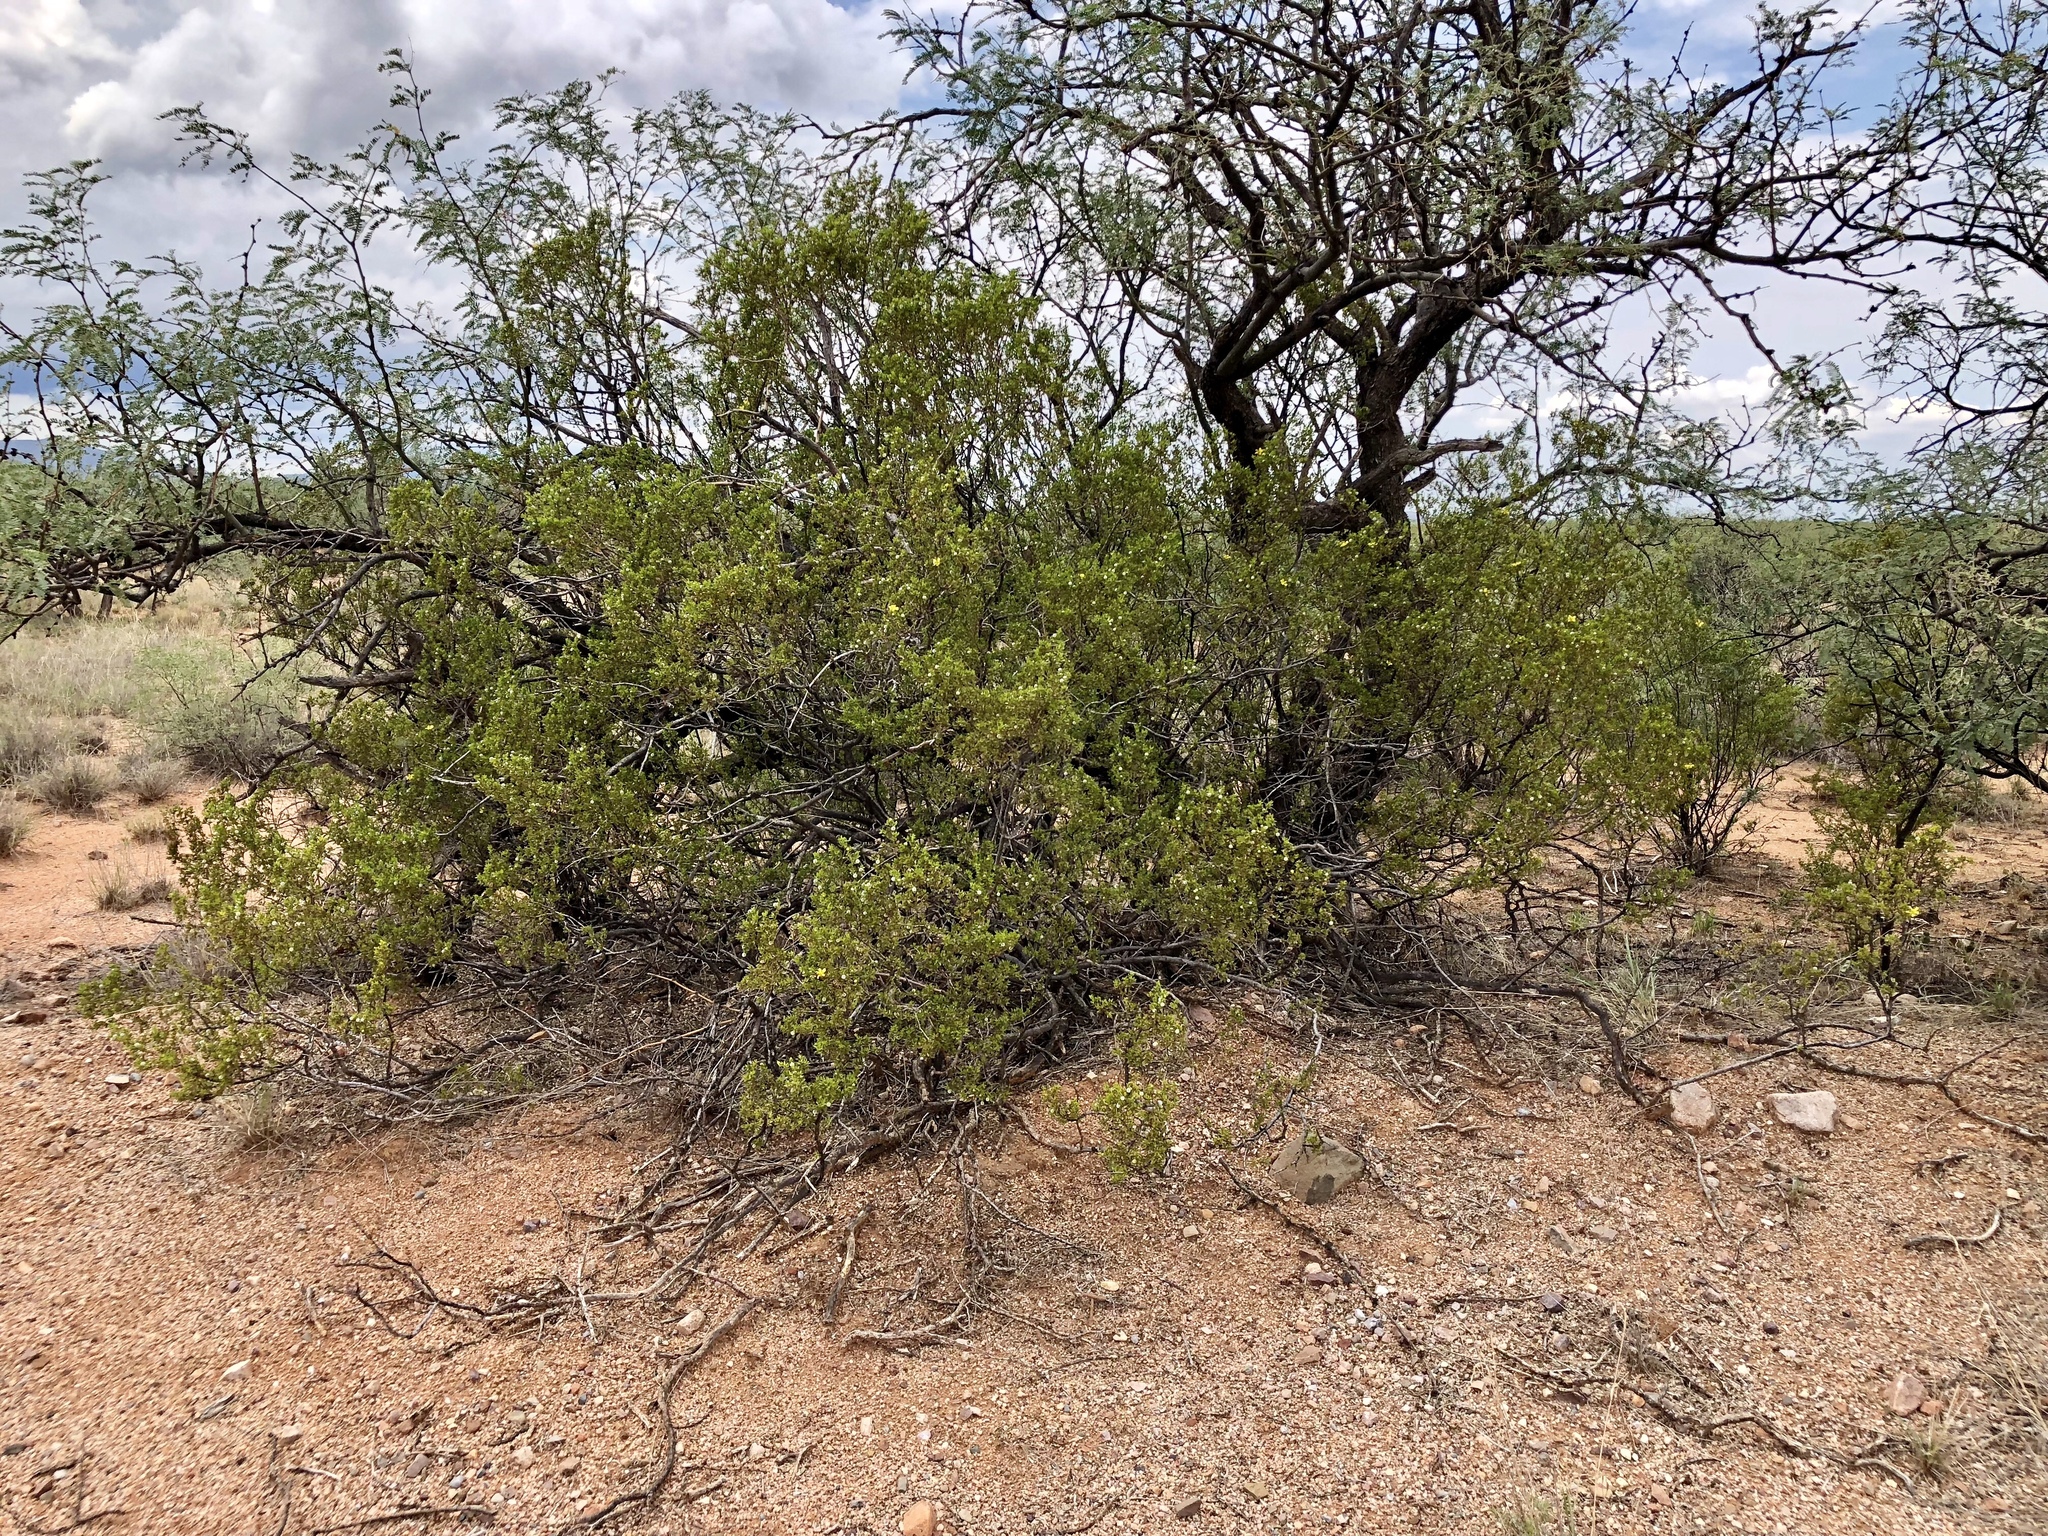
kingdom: Plantae
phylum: Tracheophyta
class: Magnoliopsida
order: Zygophyllales
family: Zygophyllaceae
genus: Larrea
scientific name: Larrea tridentata
